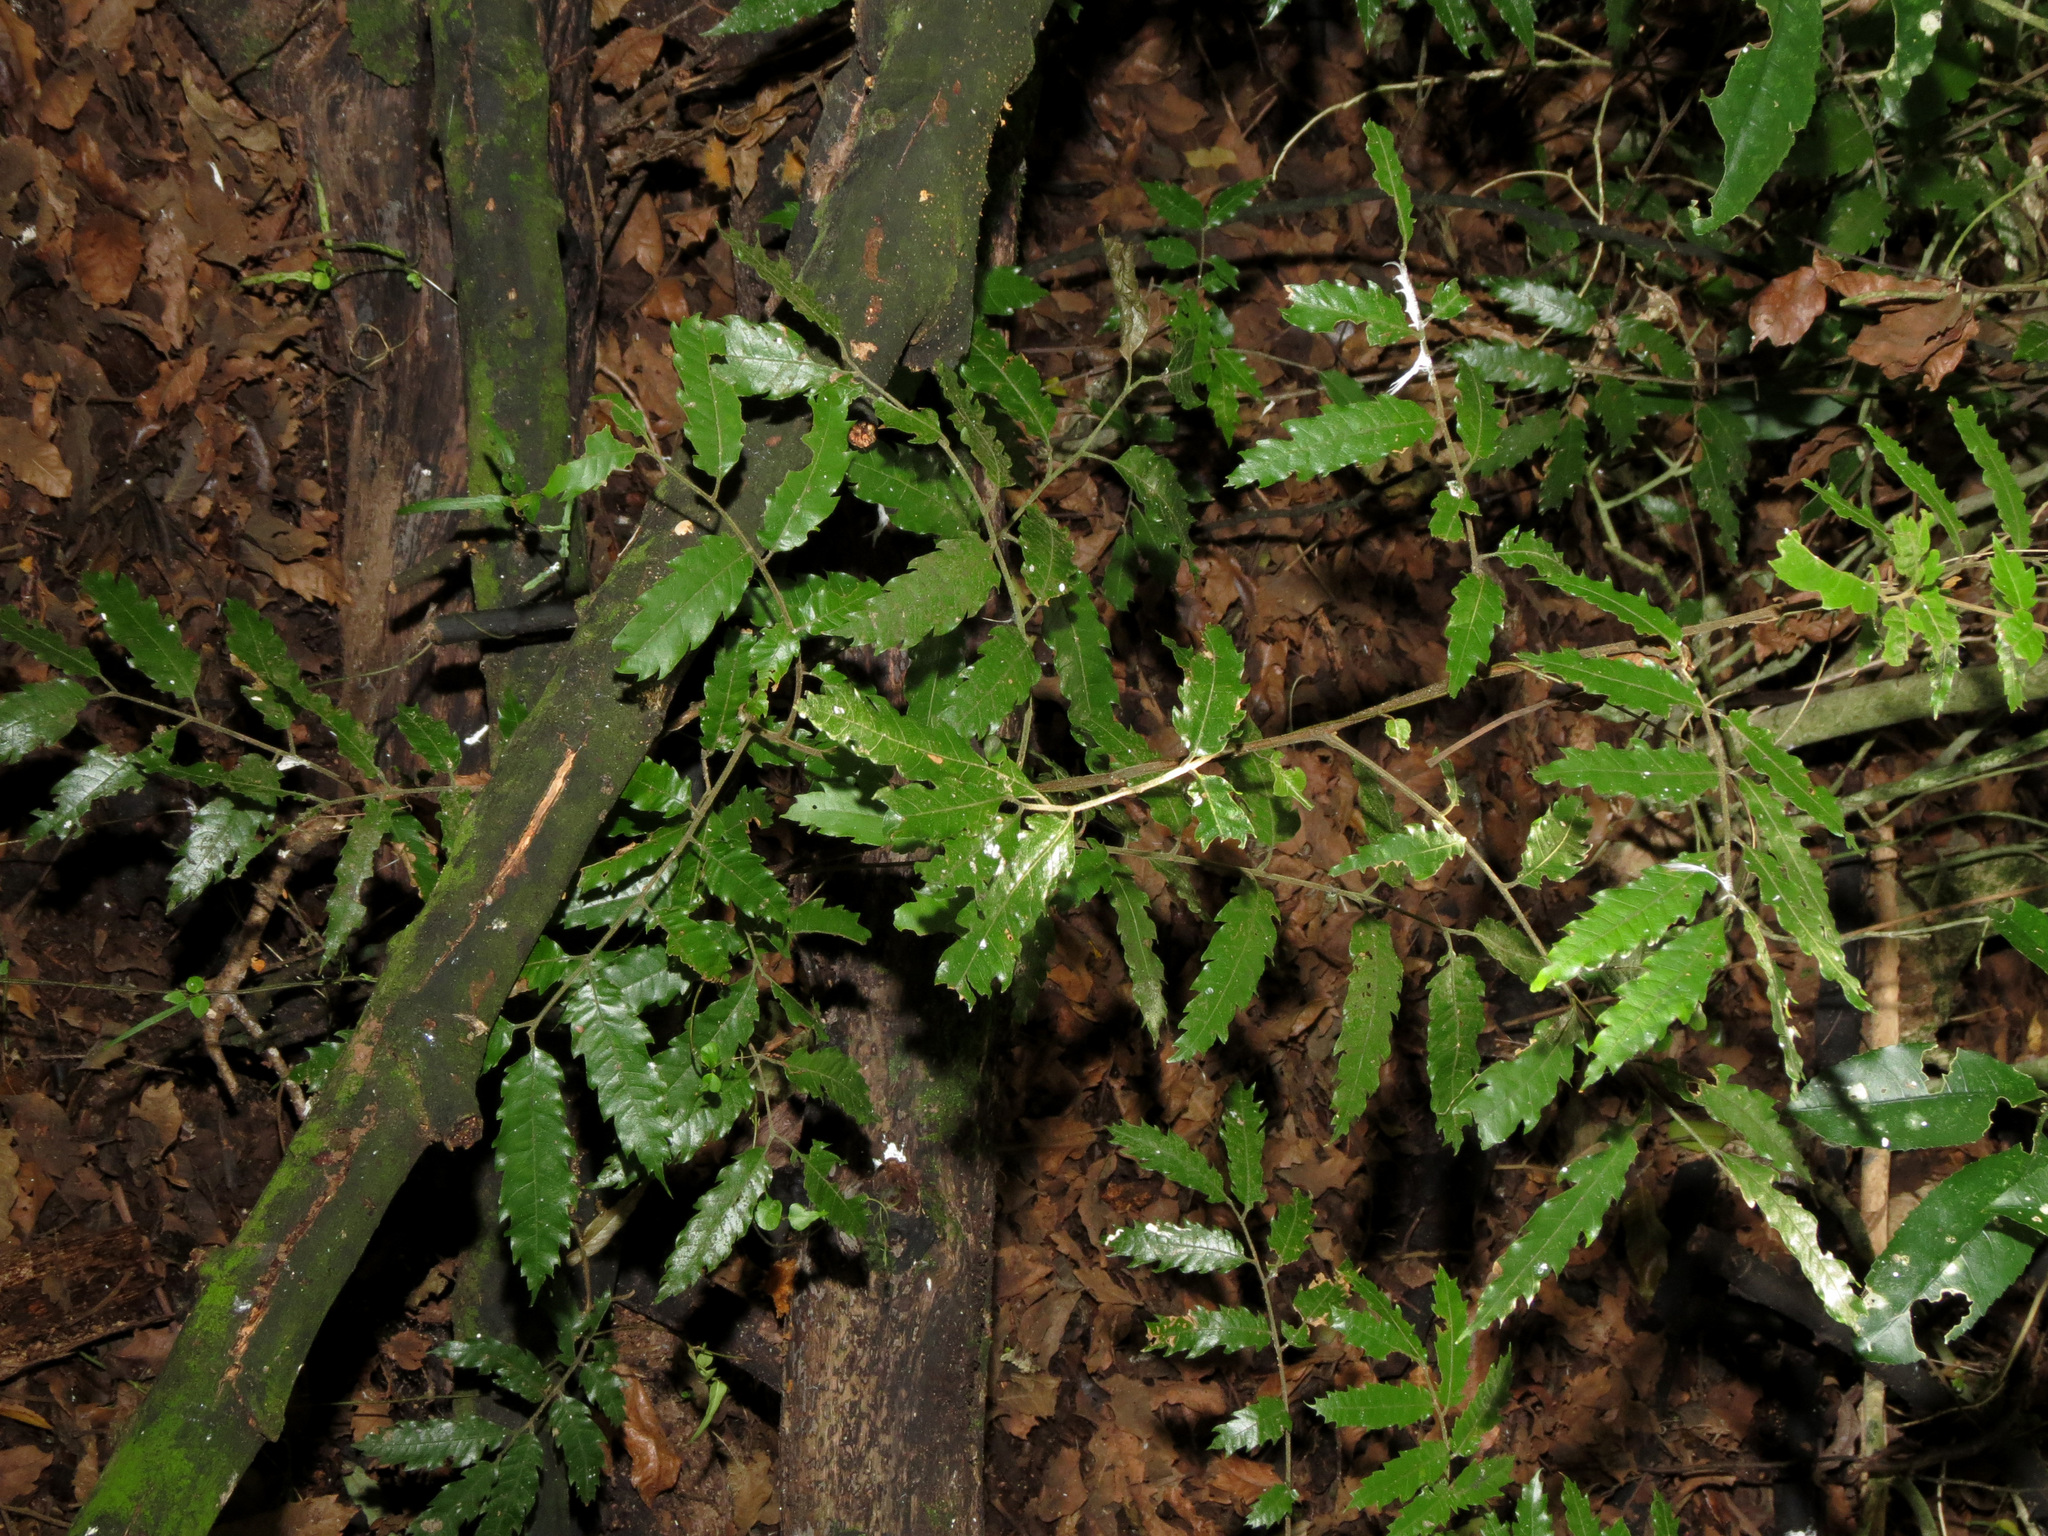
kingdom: Plantae
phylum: Tracheophyta
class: Magnoliopsida
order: Sapindales
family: Sapindaceae
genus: Alectryon
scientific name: Alectryon excelsus
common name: Three kings titoki
